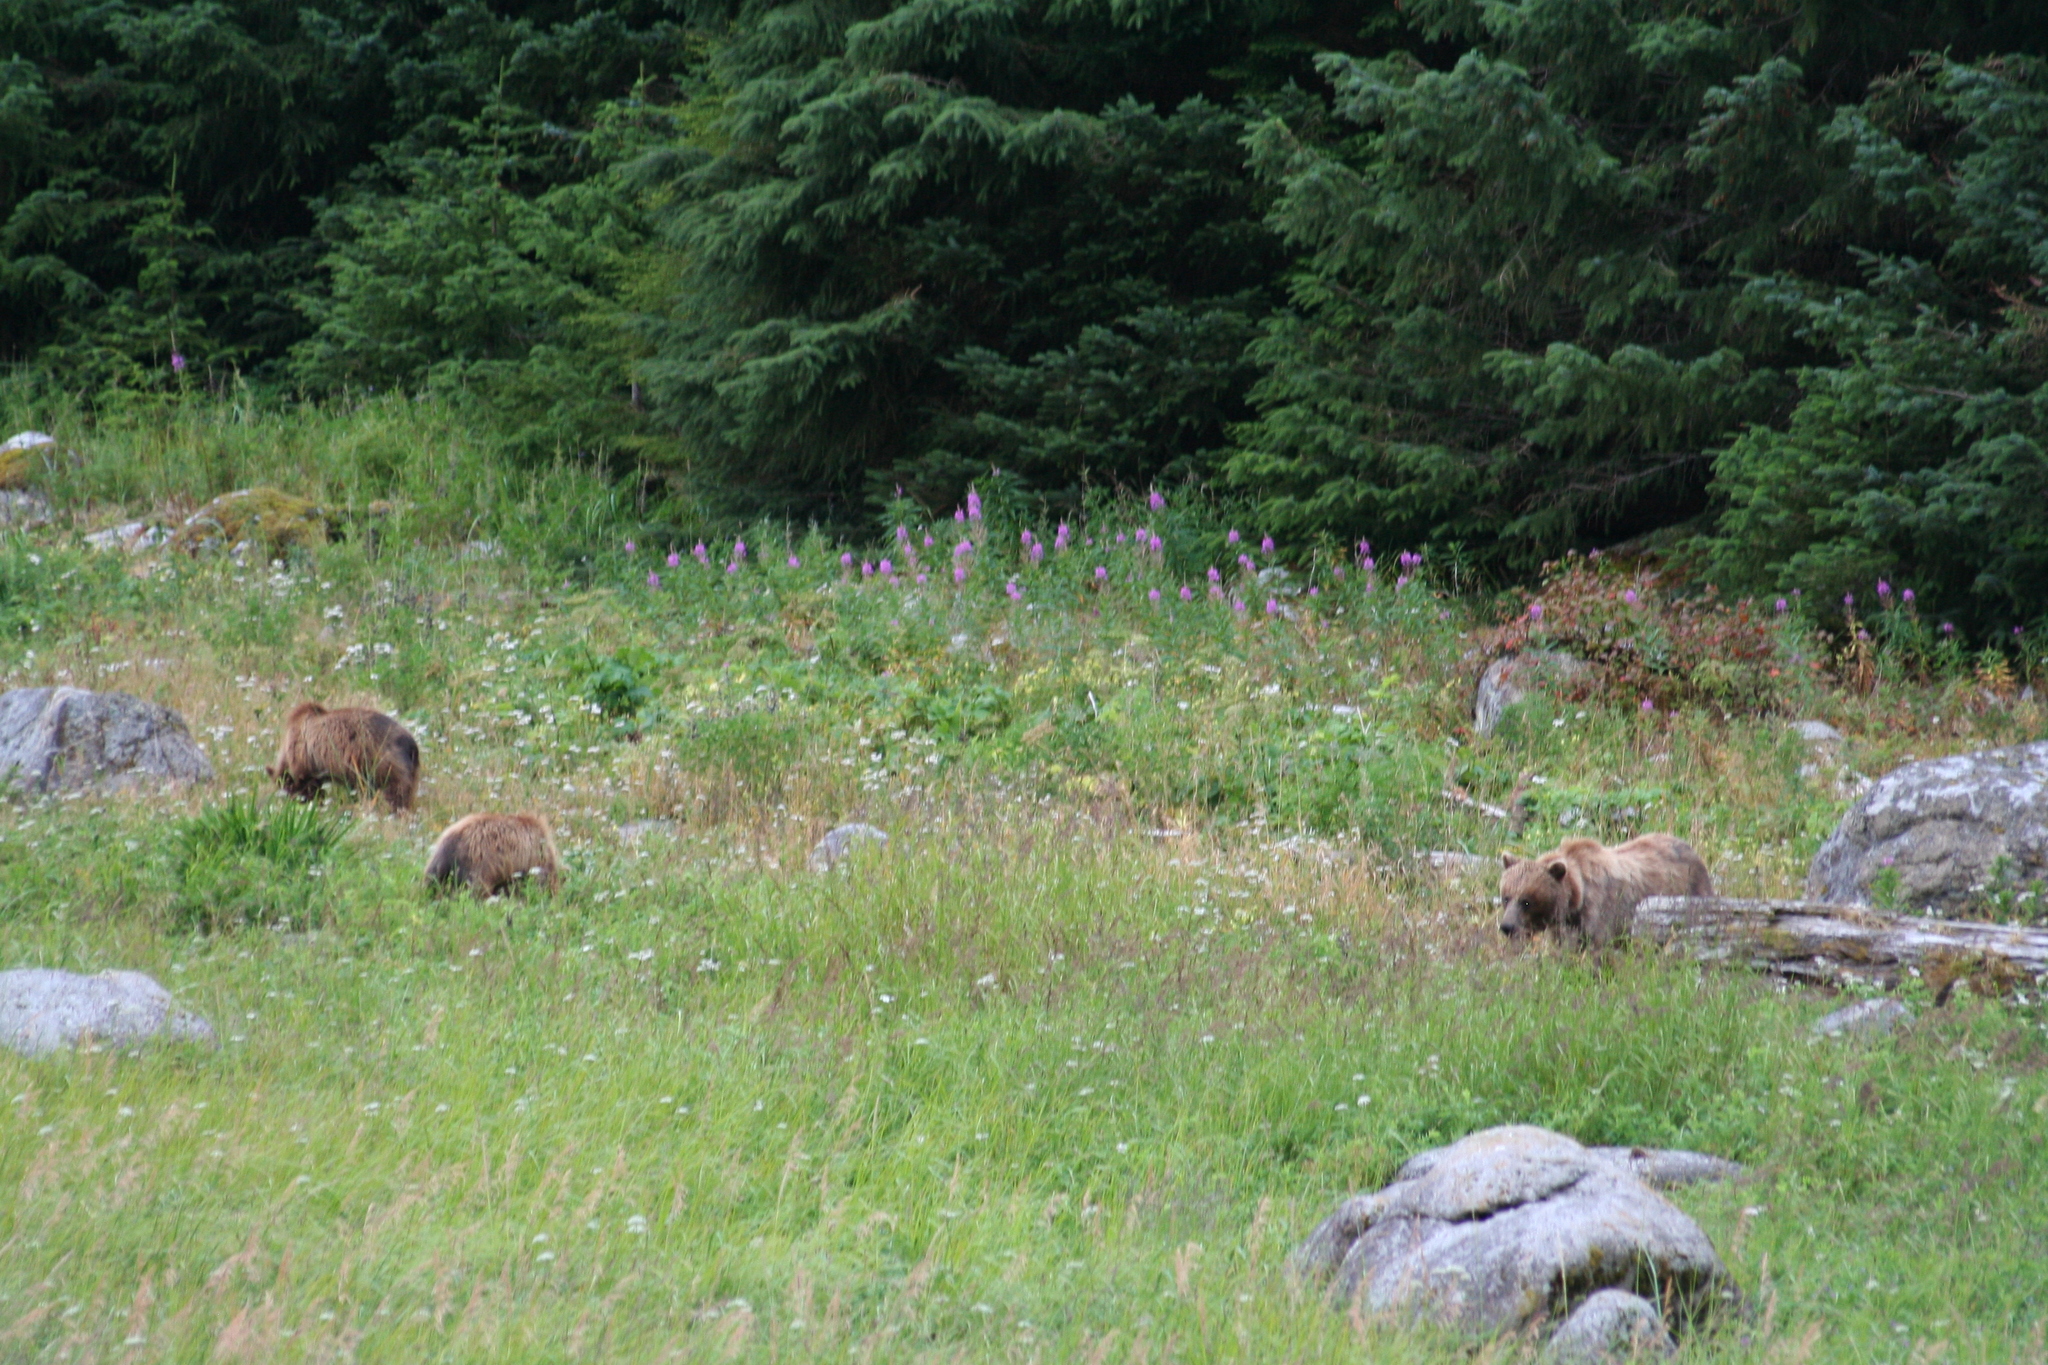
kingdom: Animalia
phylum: Chordata
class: Mammalia
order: Carnivora
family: Ursidae
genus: Ursus
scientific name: Ursus arctos
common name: Brown bear
